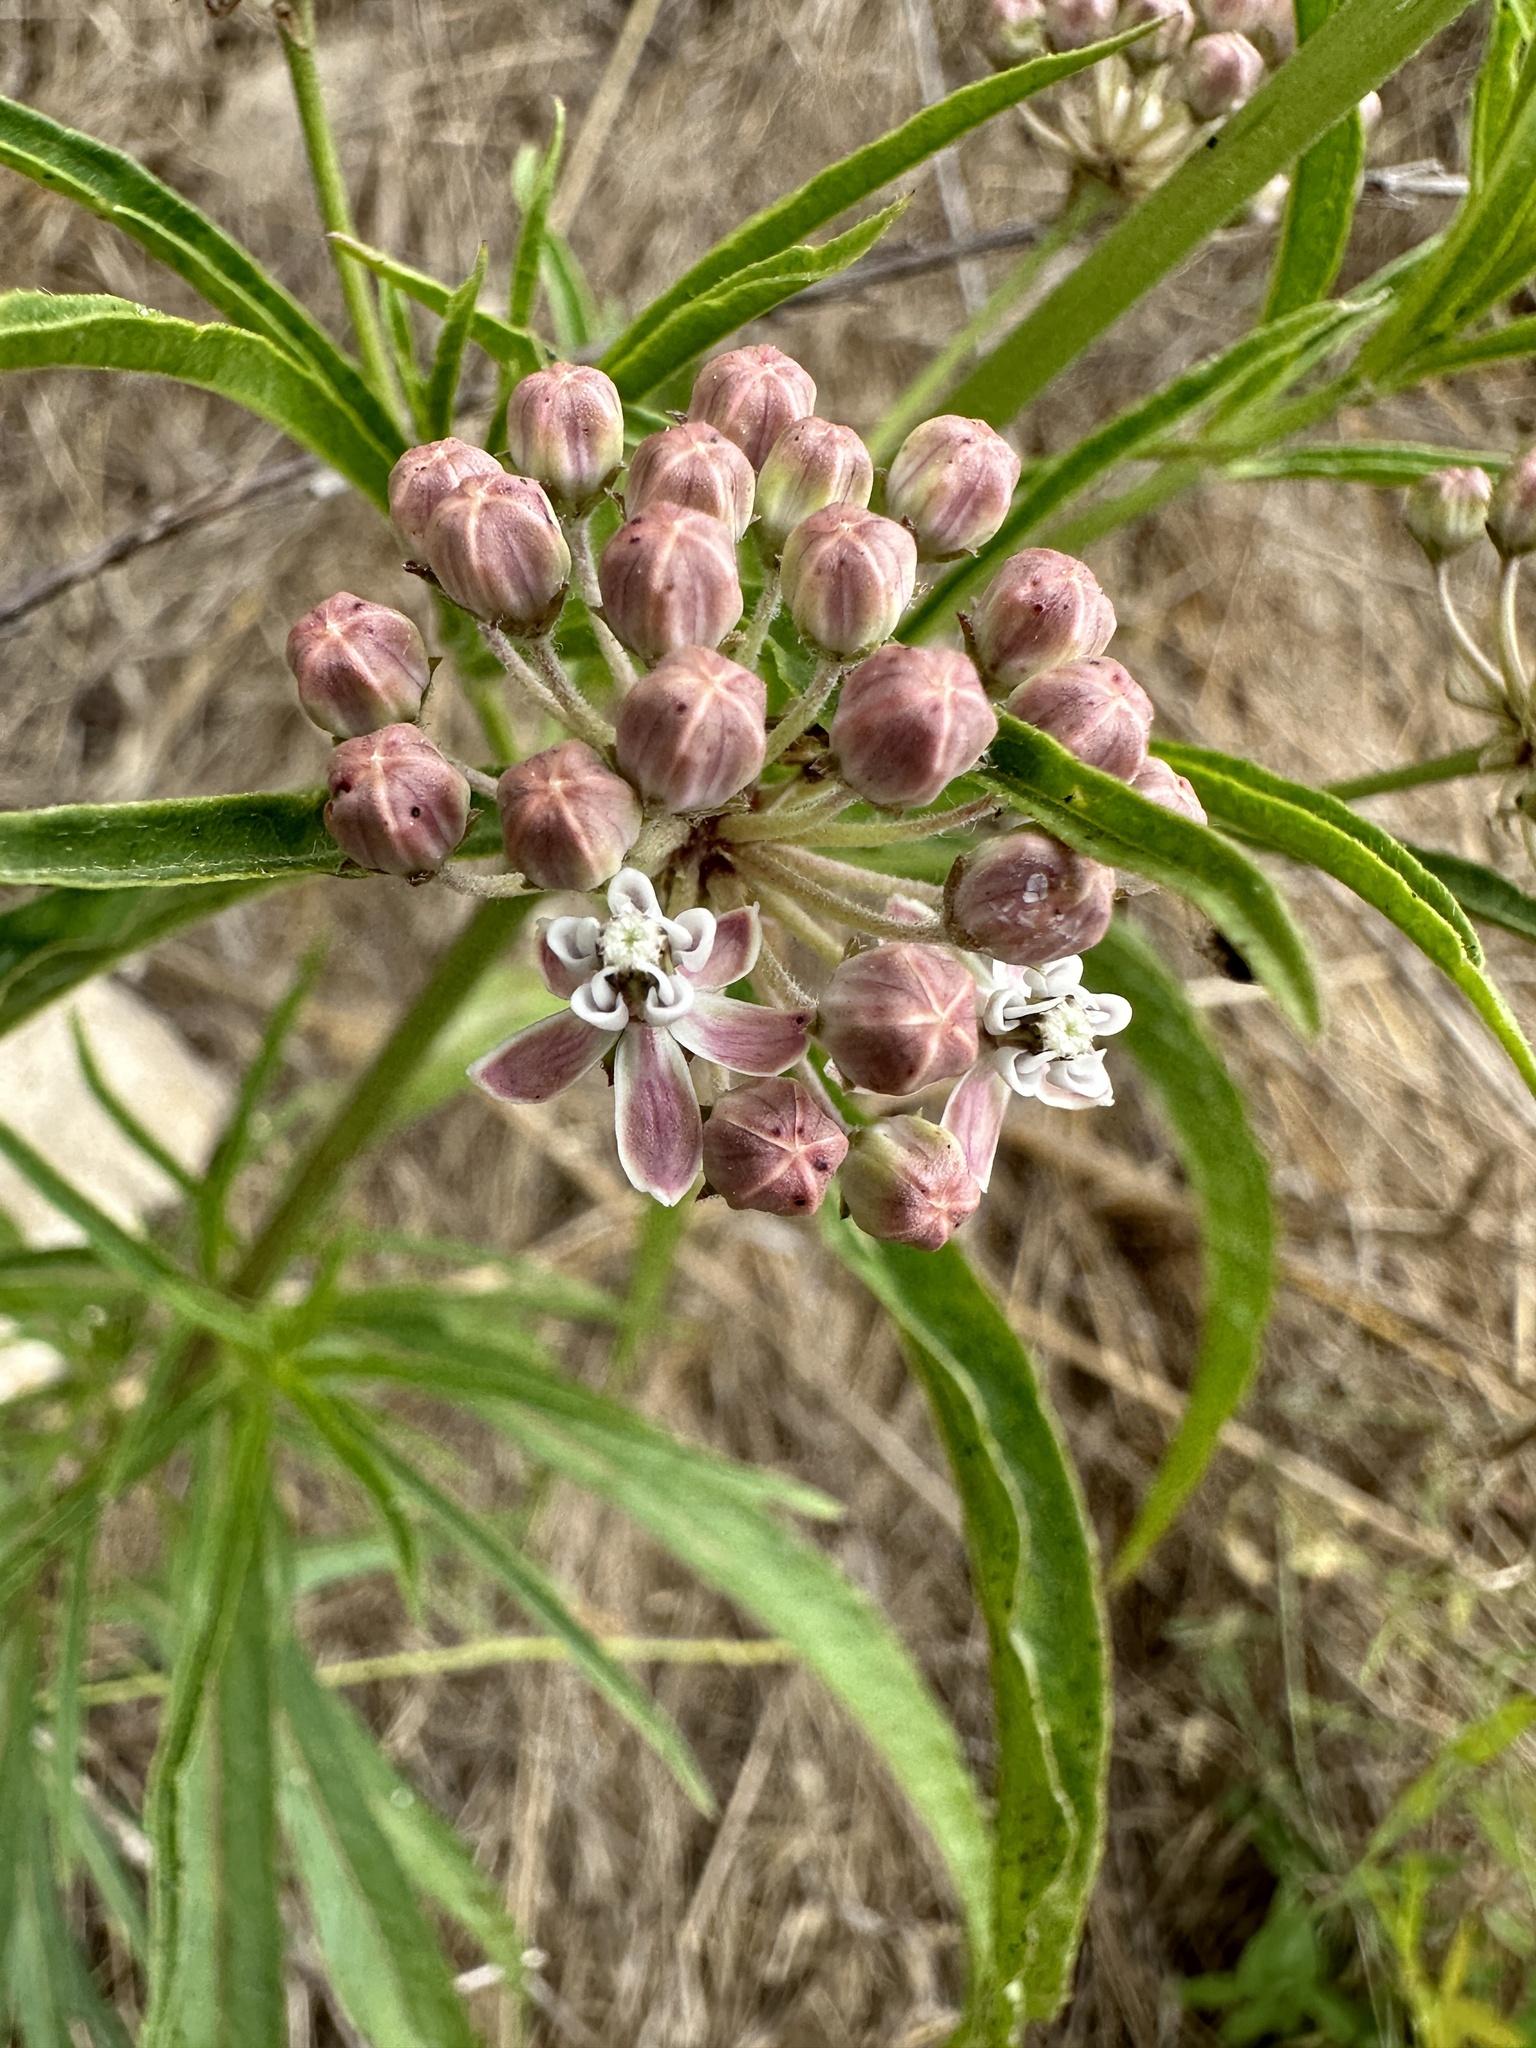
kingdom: Plantae
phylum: Tracheophyta
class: Magnoliopsida
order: Gentianales
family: Apocynaceae
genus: Asclepias
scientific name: Asclepias fascicularis
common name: Mexican milkweed
